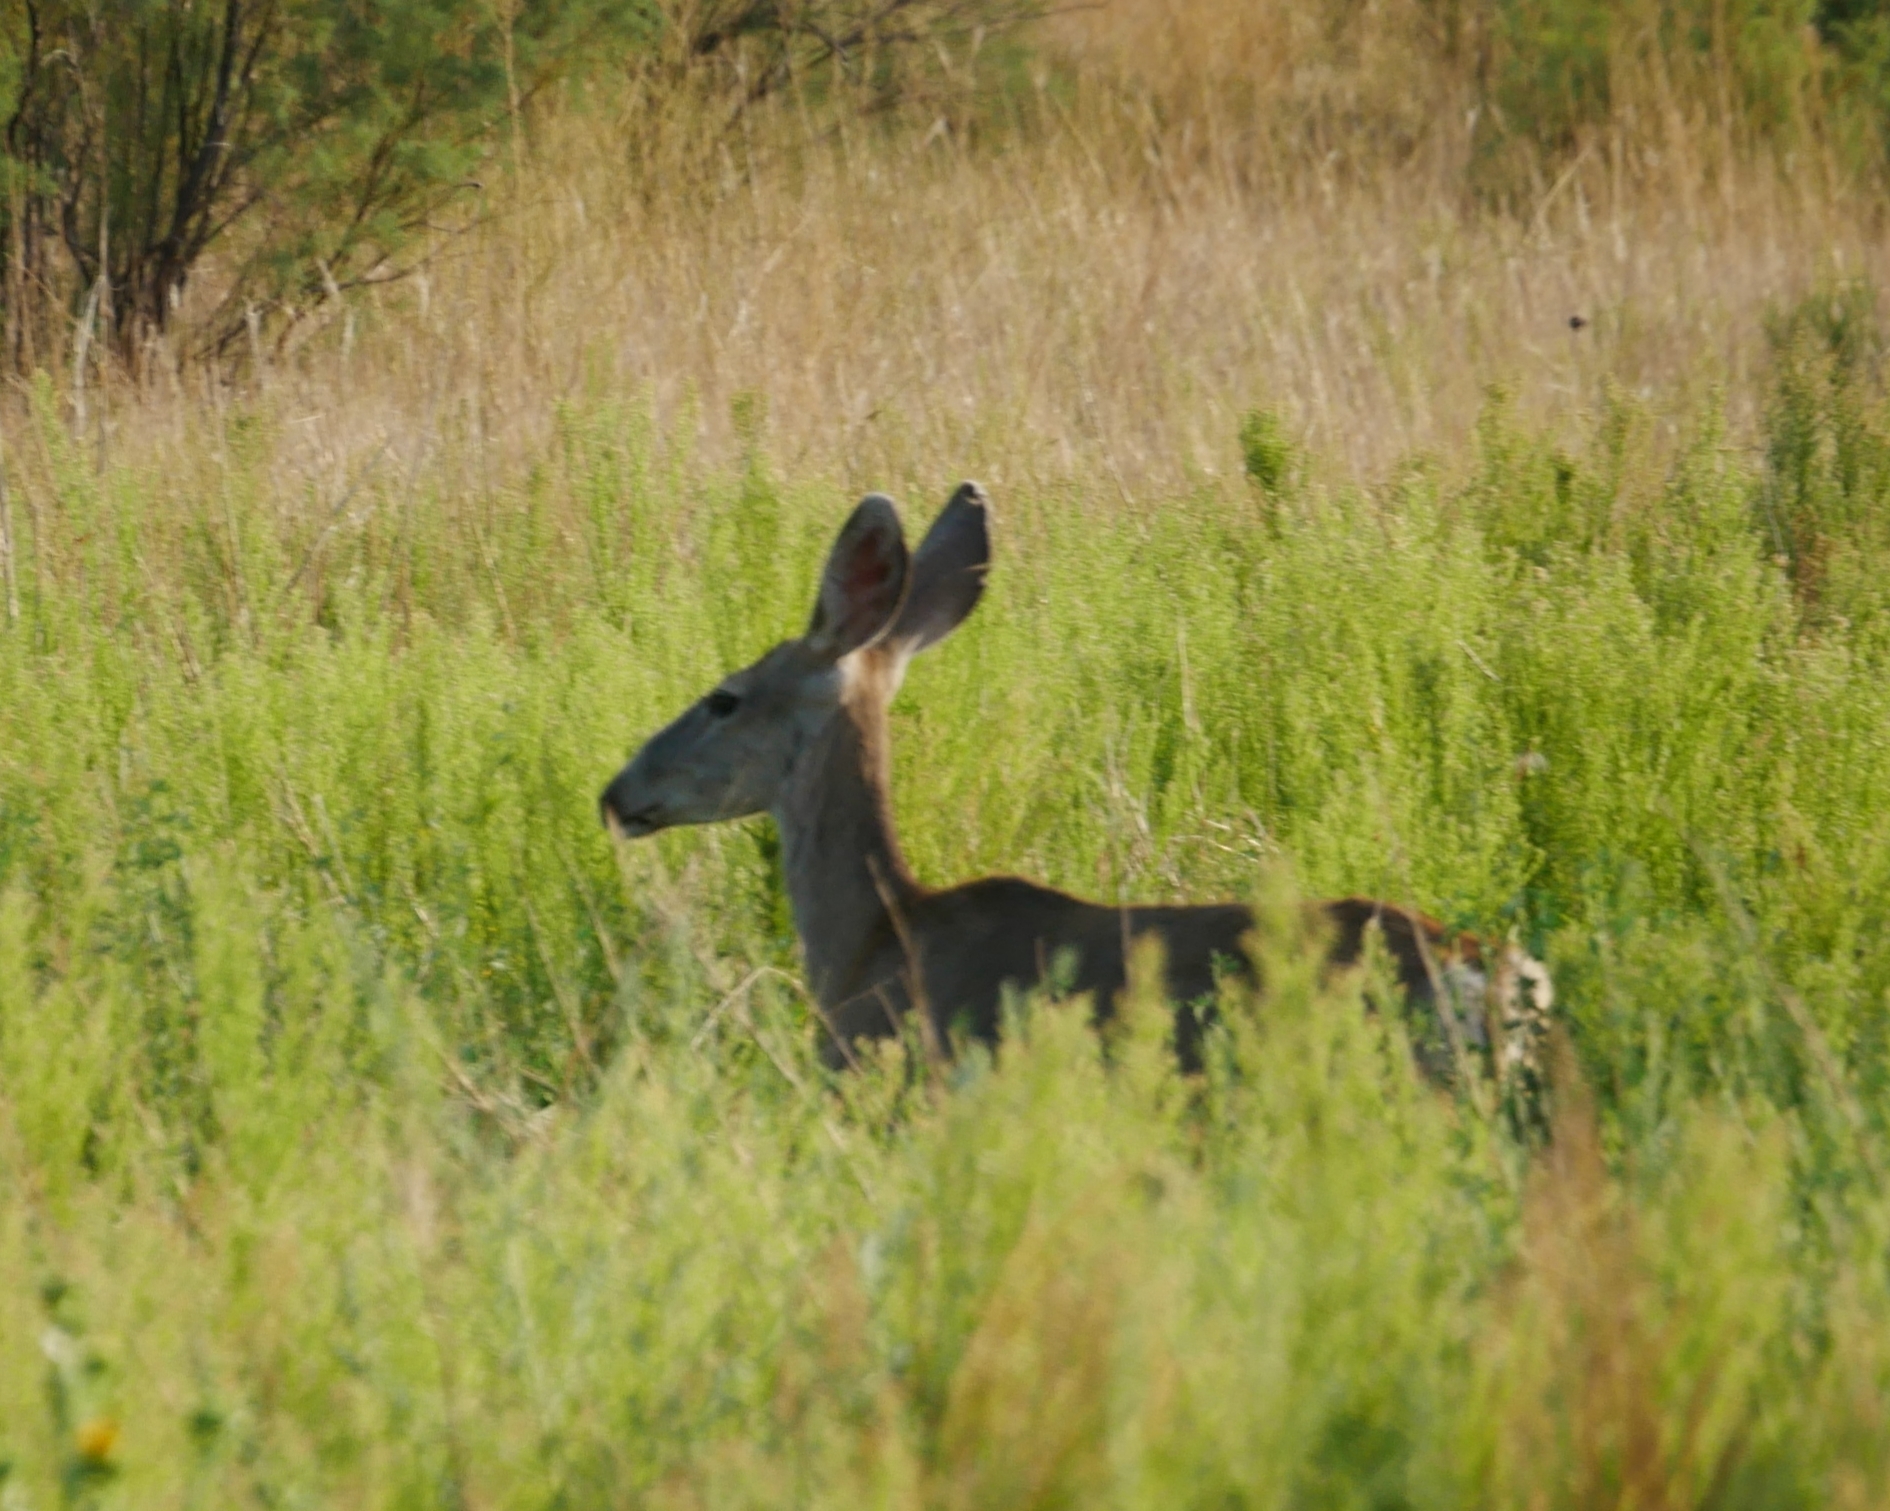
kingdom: Animalia
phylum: Chordata
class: Mammalia
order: Artiodactyla
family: Cervidae
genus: Odocoileus
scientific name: Odocoileus hemionus
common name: Mule deer
